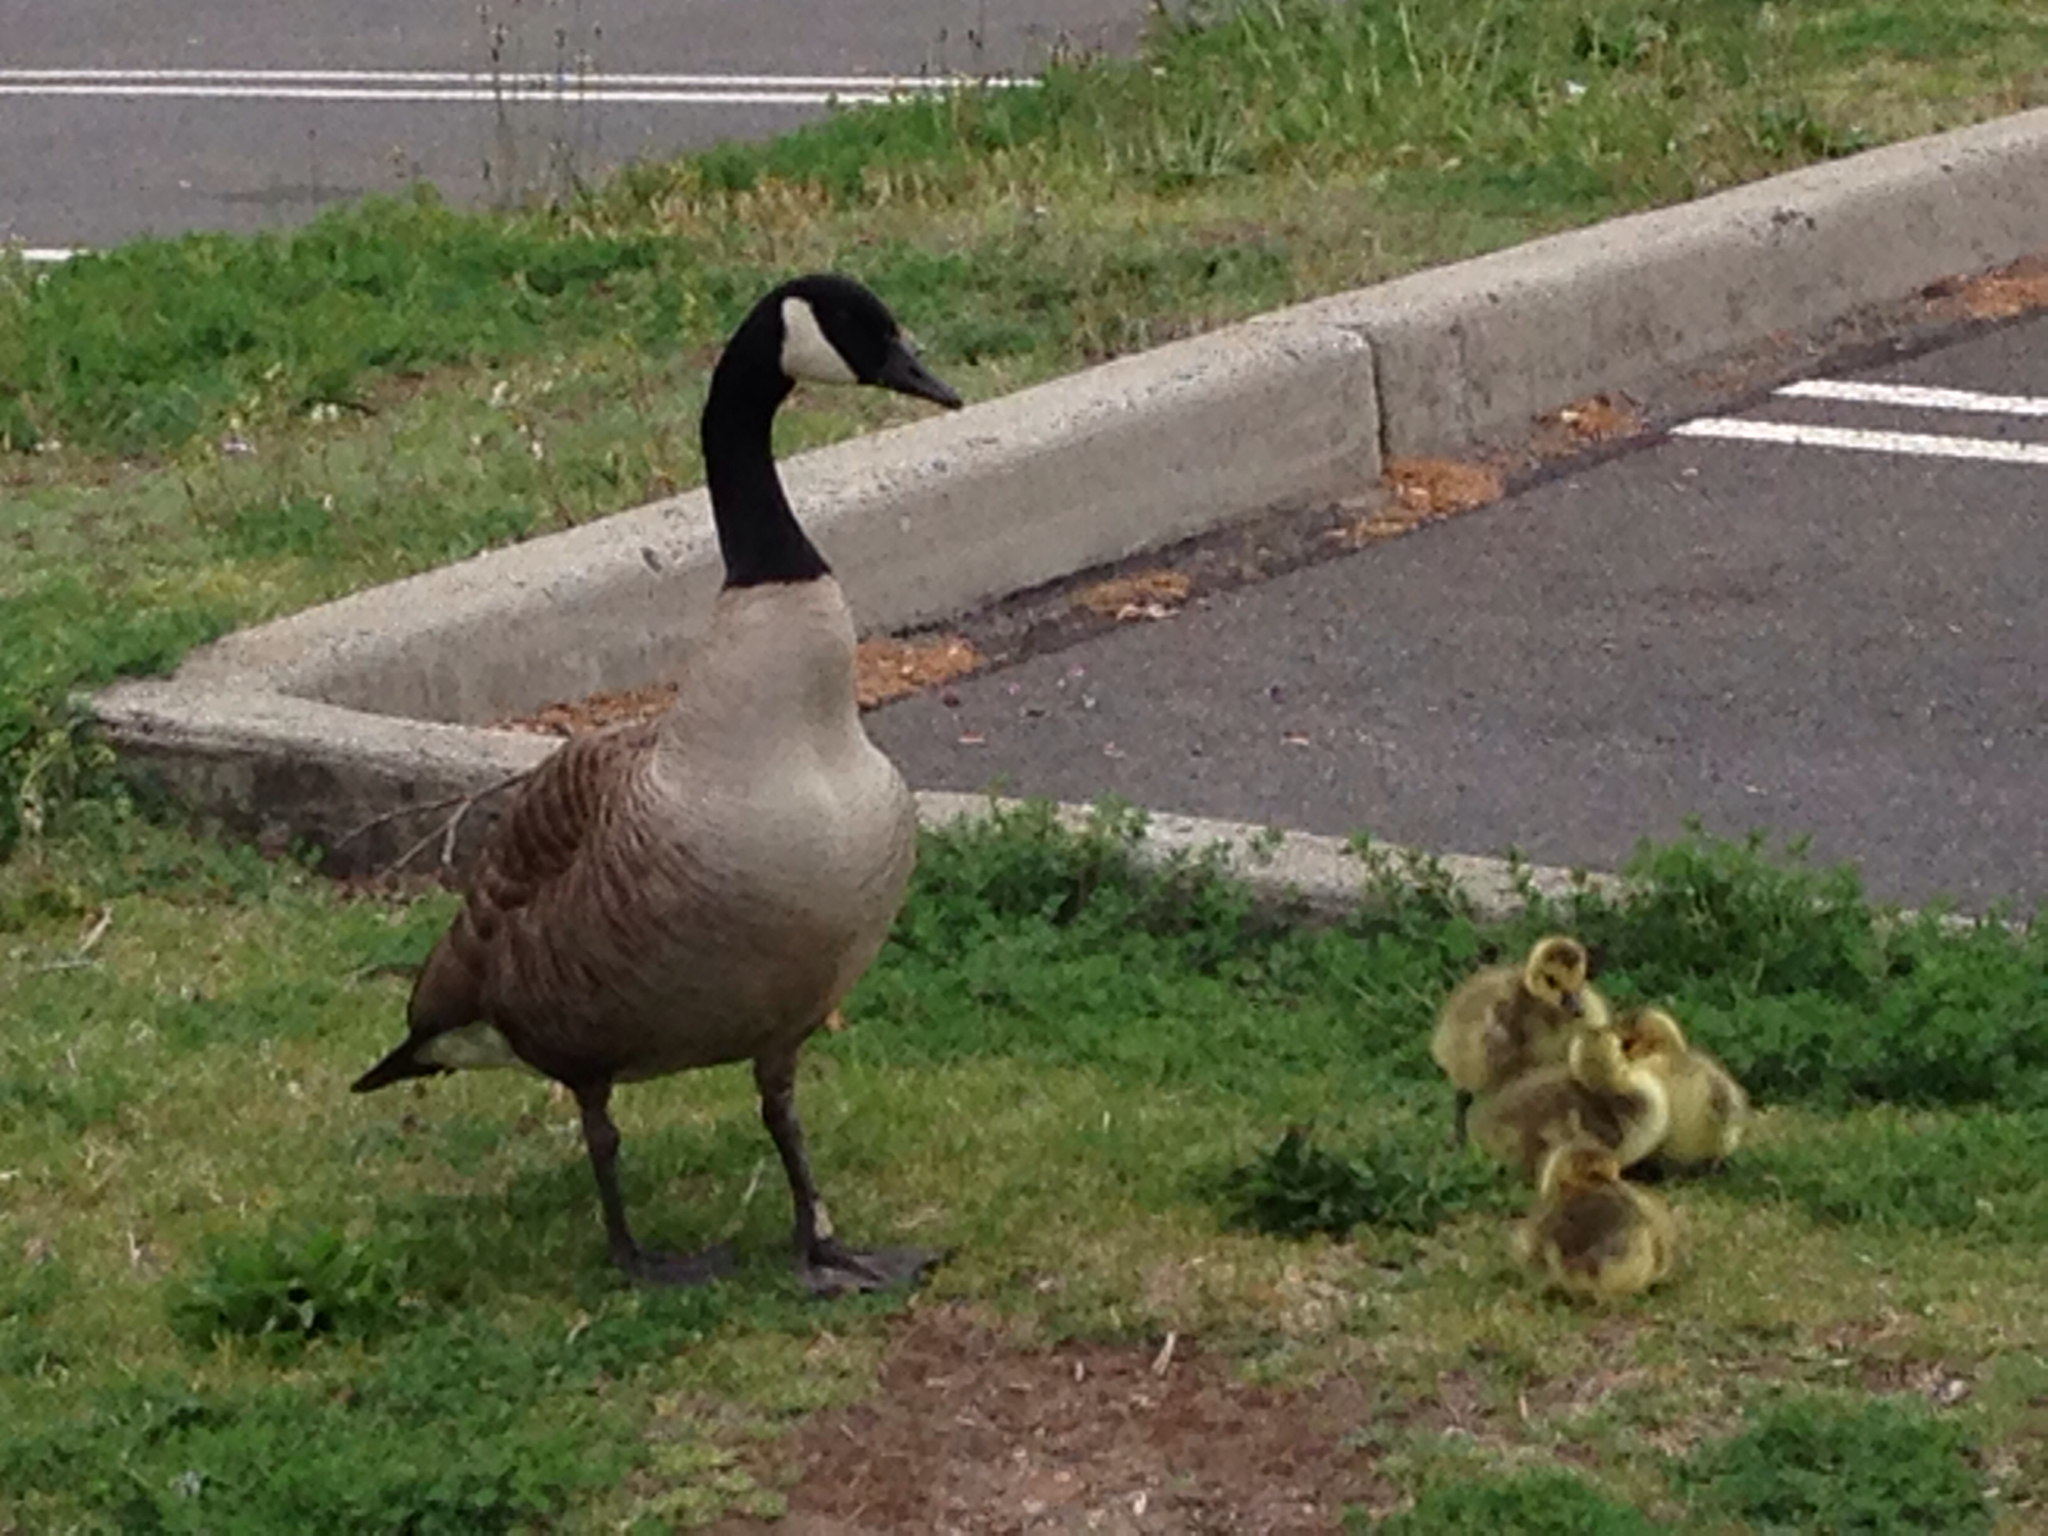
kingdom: Animalia
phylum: Chordata
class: Aves
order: Anseriformes
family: Anatidae
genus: Branta
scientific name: Branta canadensis
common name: Canada goose
